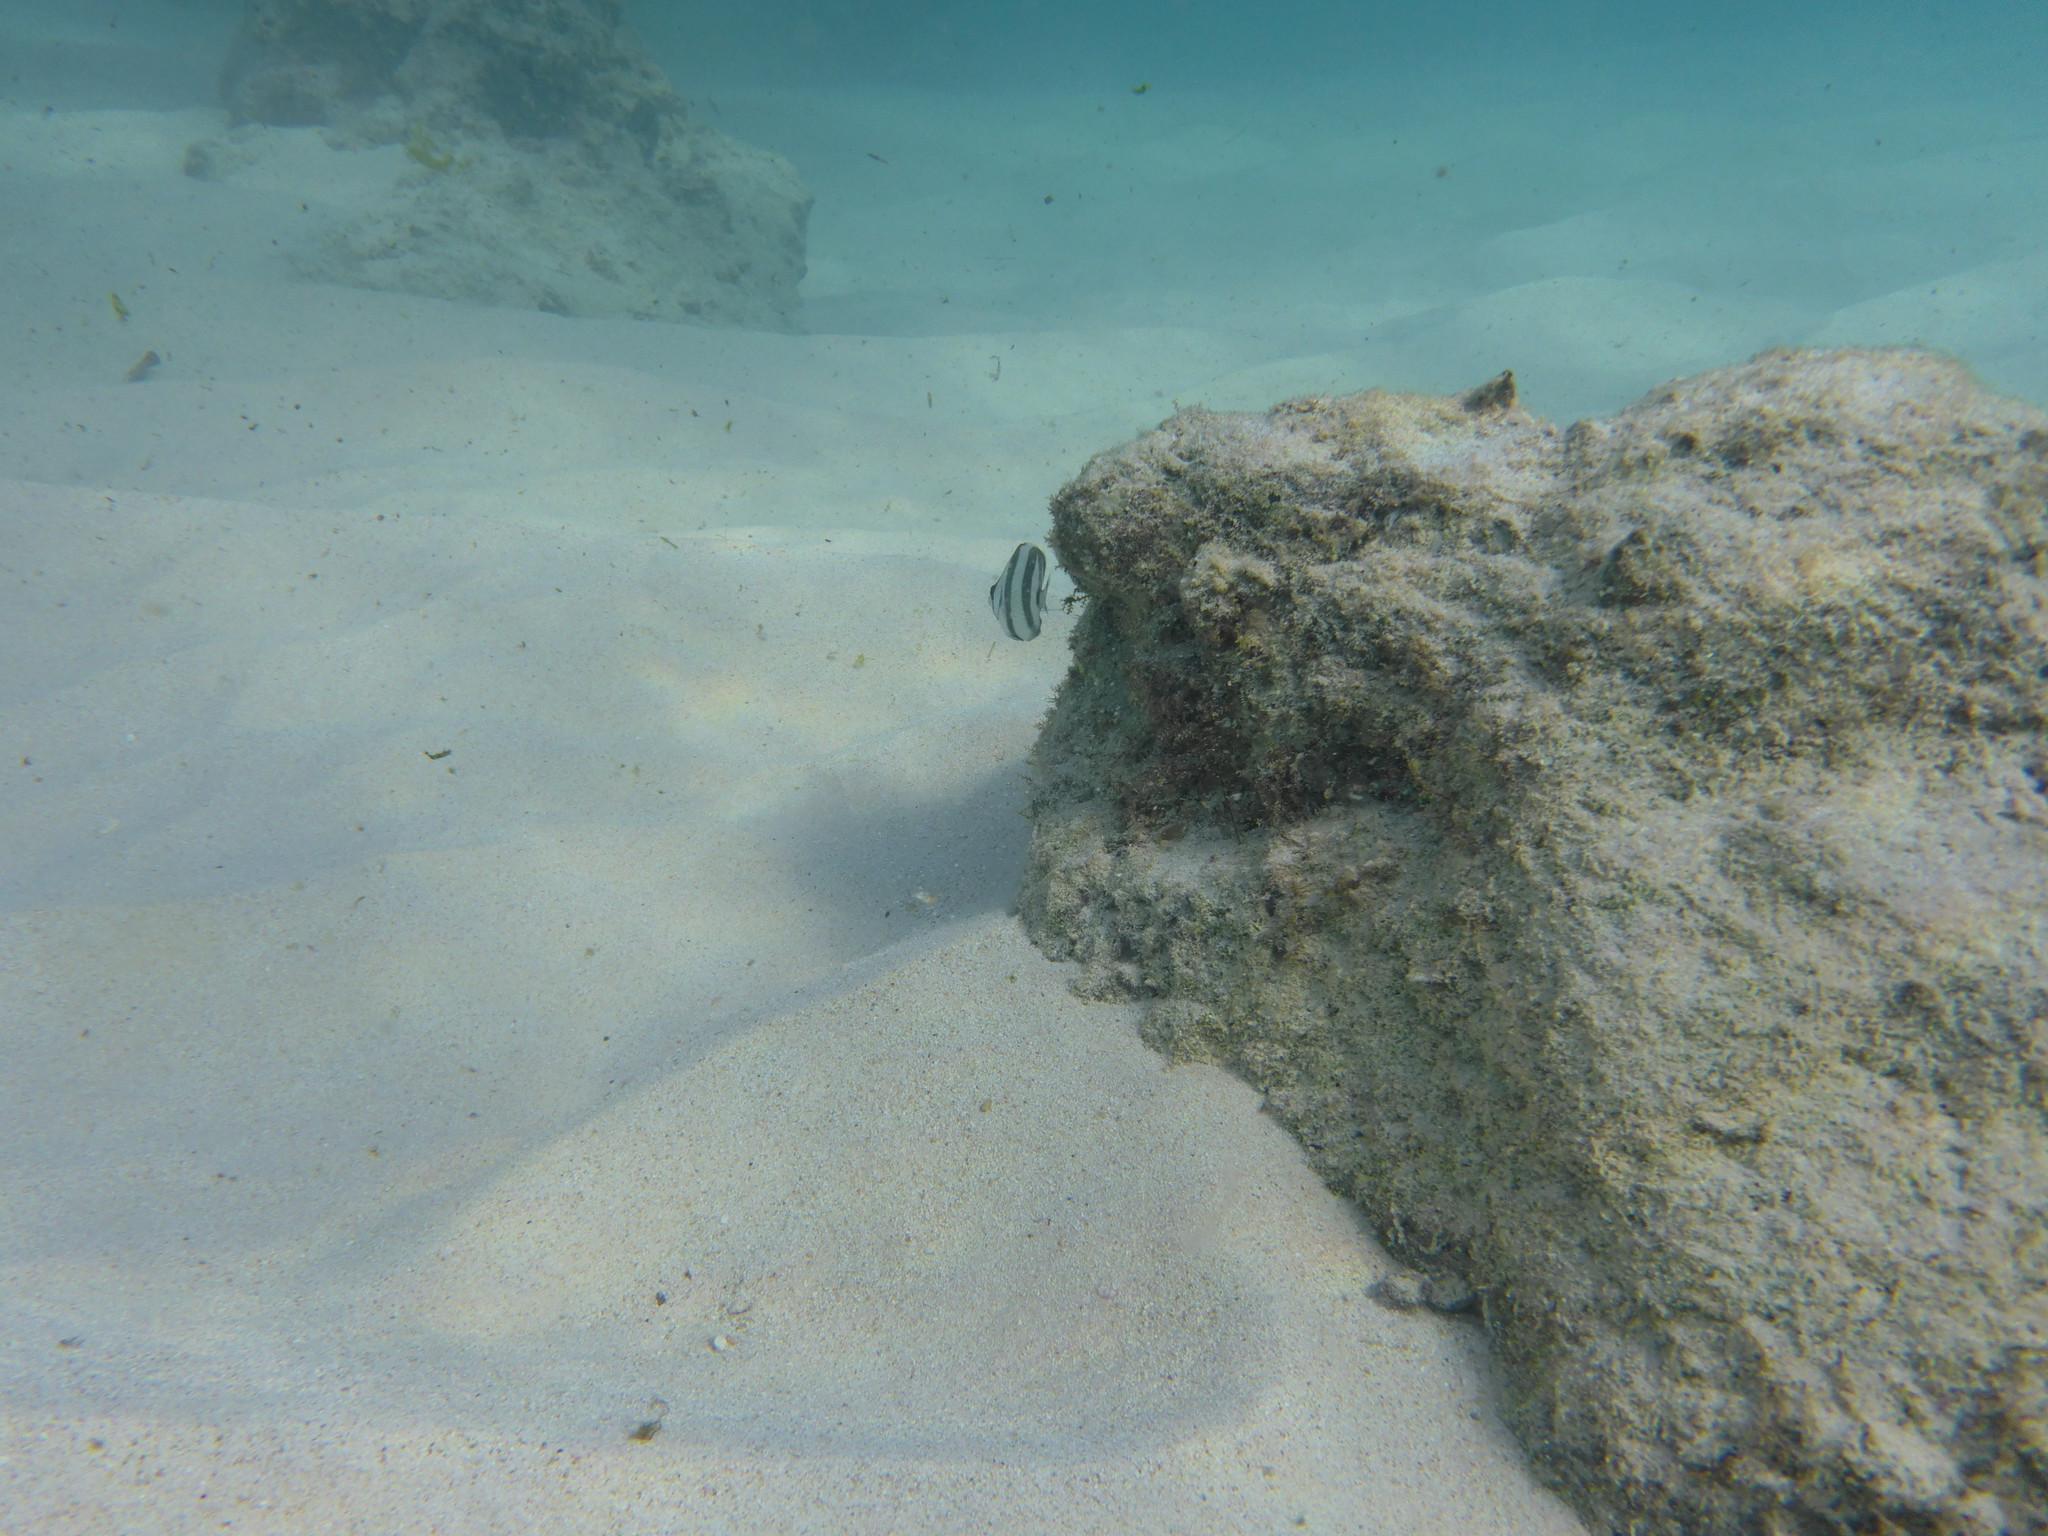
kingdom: Animalia
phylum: Chordata
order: Perciformes
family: Chaetodontidae
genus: Chaetodon
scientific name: Chaetodon striatus
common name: Banded butterflyfish
